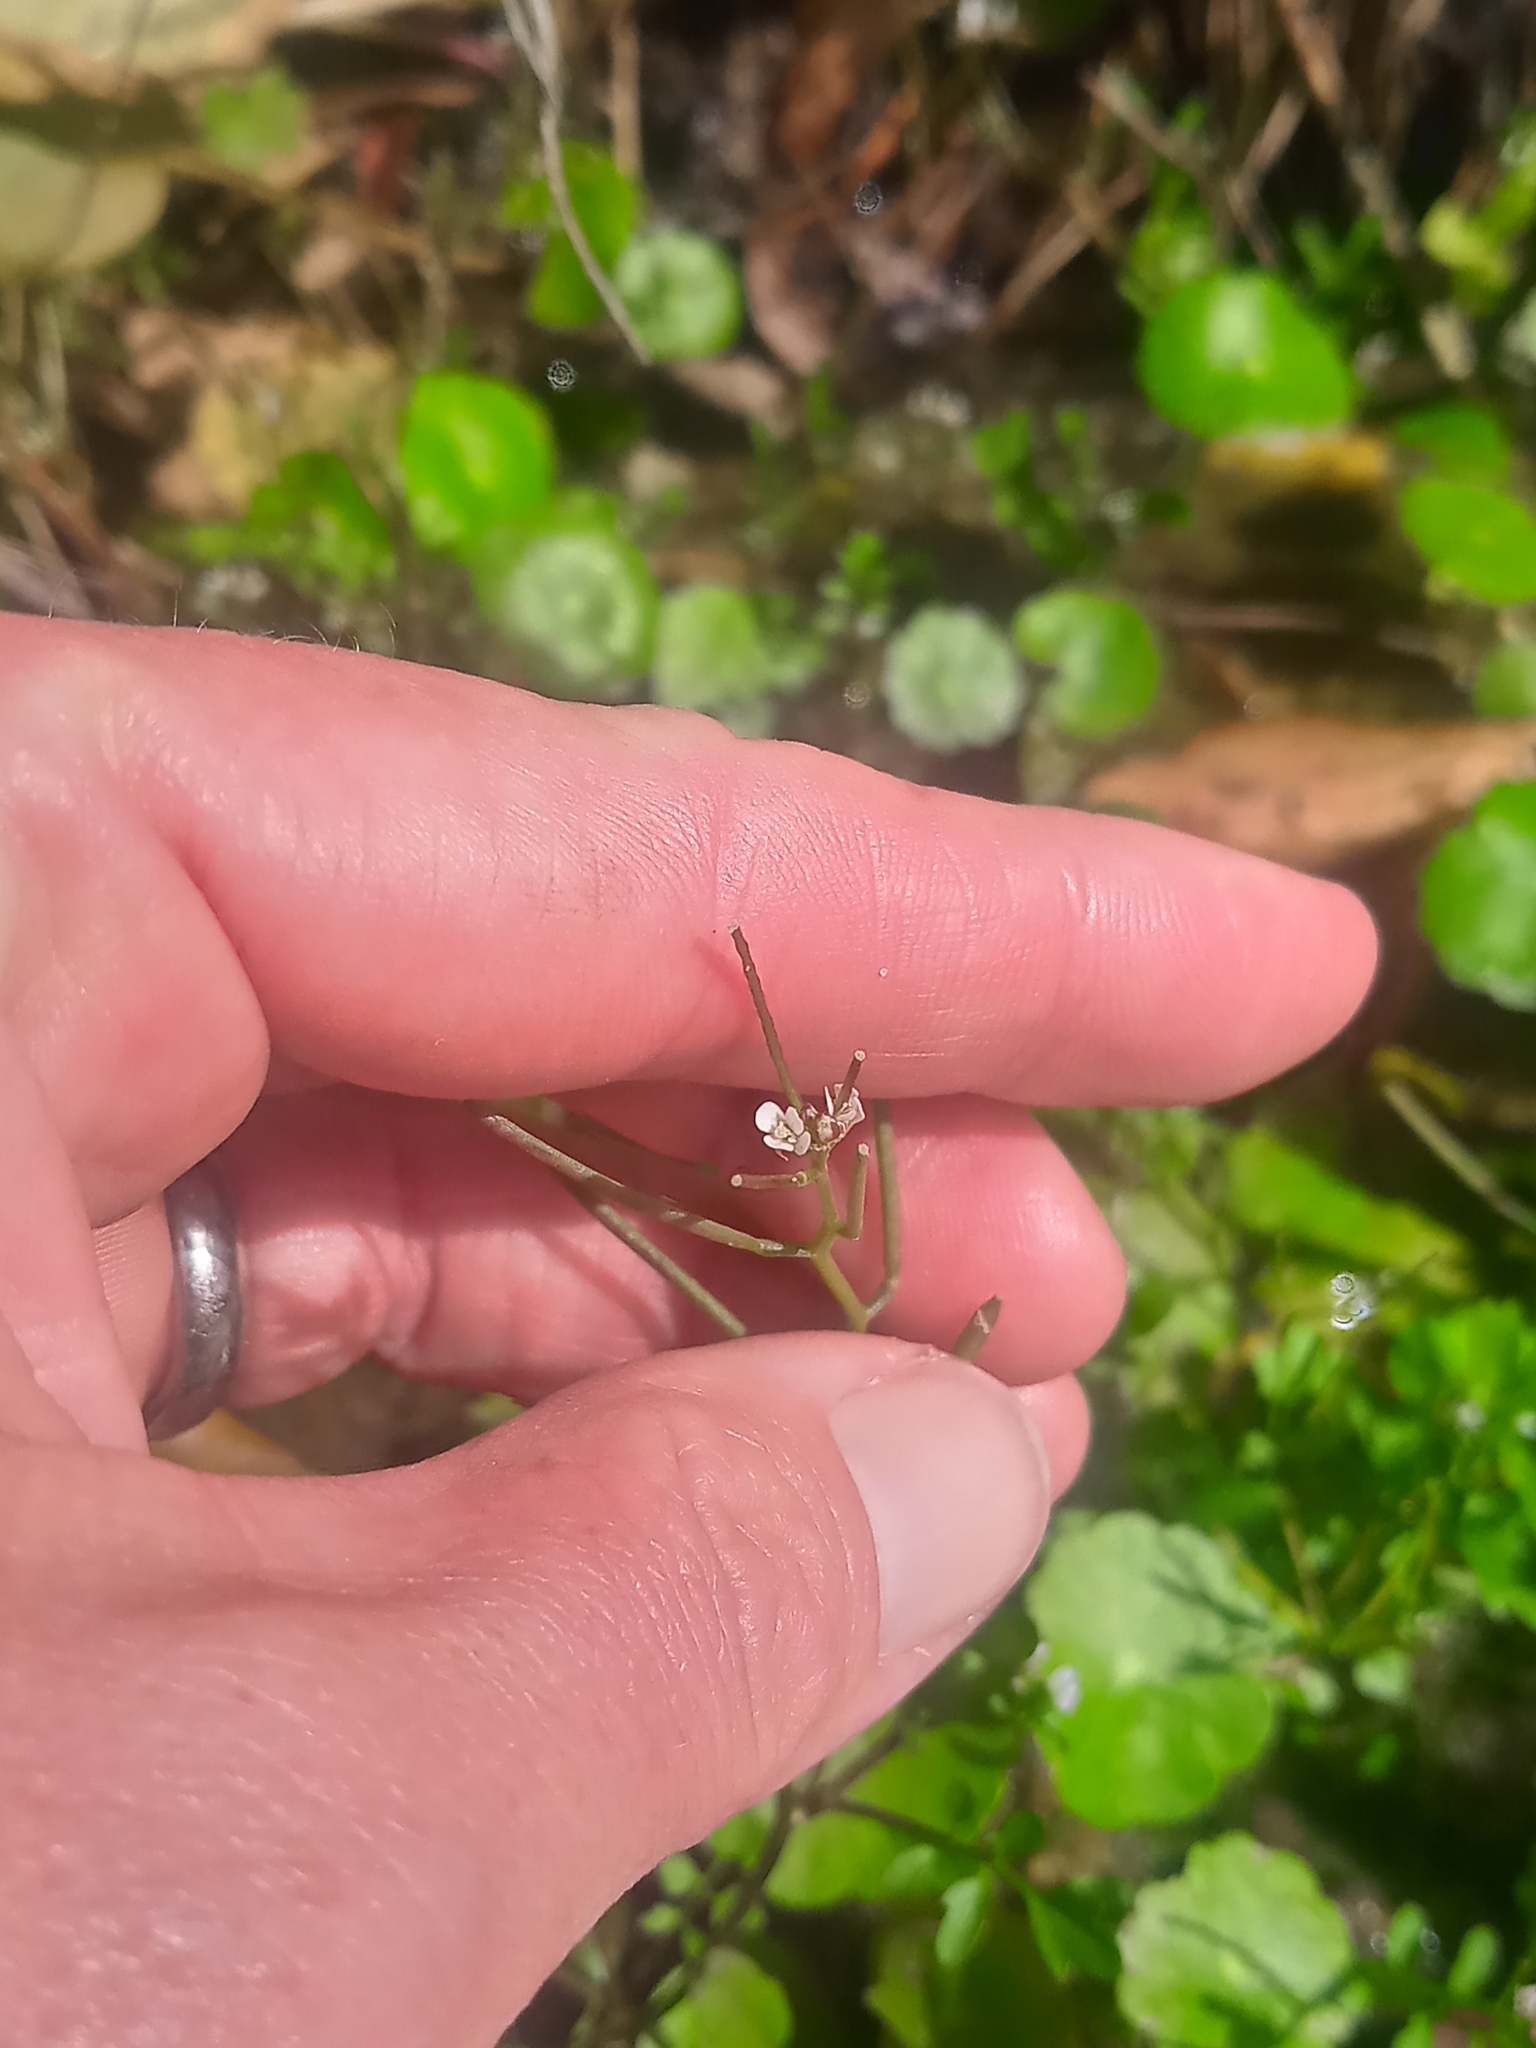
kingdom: Plantae
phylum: Tracheophyta
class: Magnoliopsida
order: Brassicales
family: Brassicaceae
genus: Cardamine
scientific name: Cardamine occulta
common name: Asian wavy bittercress
